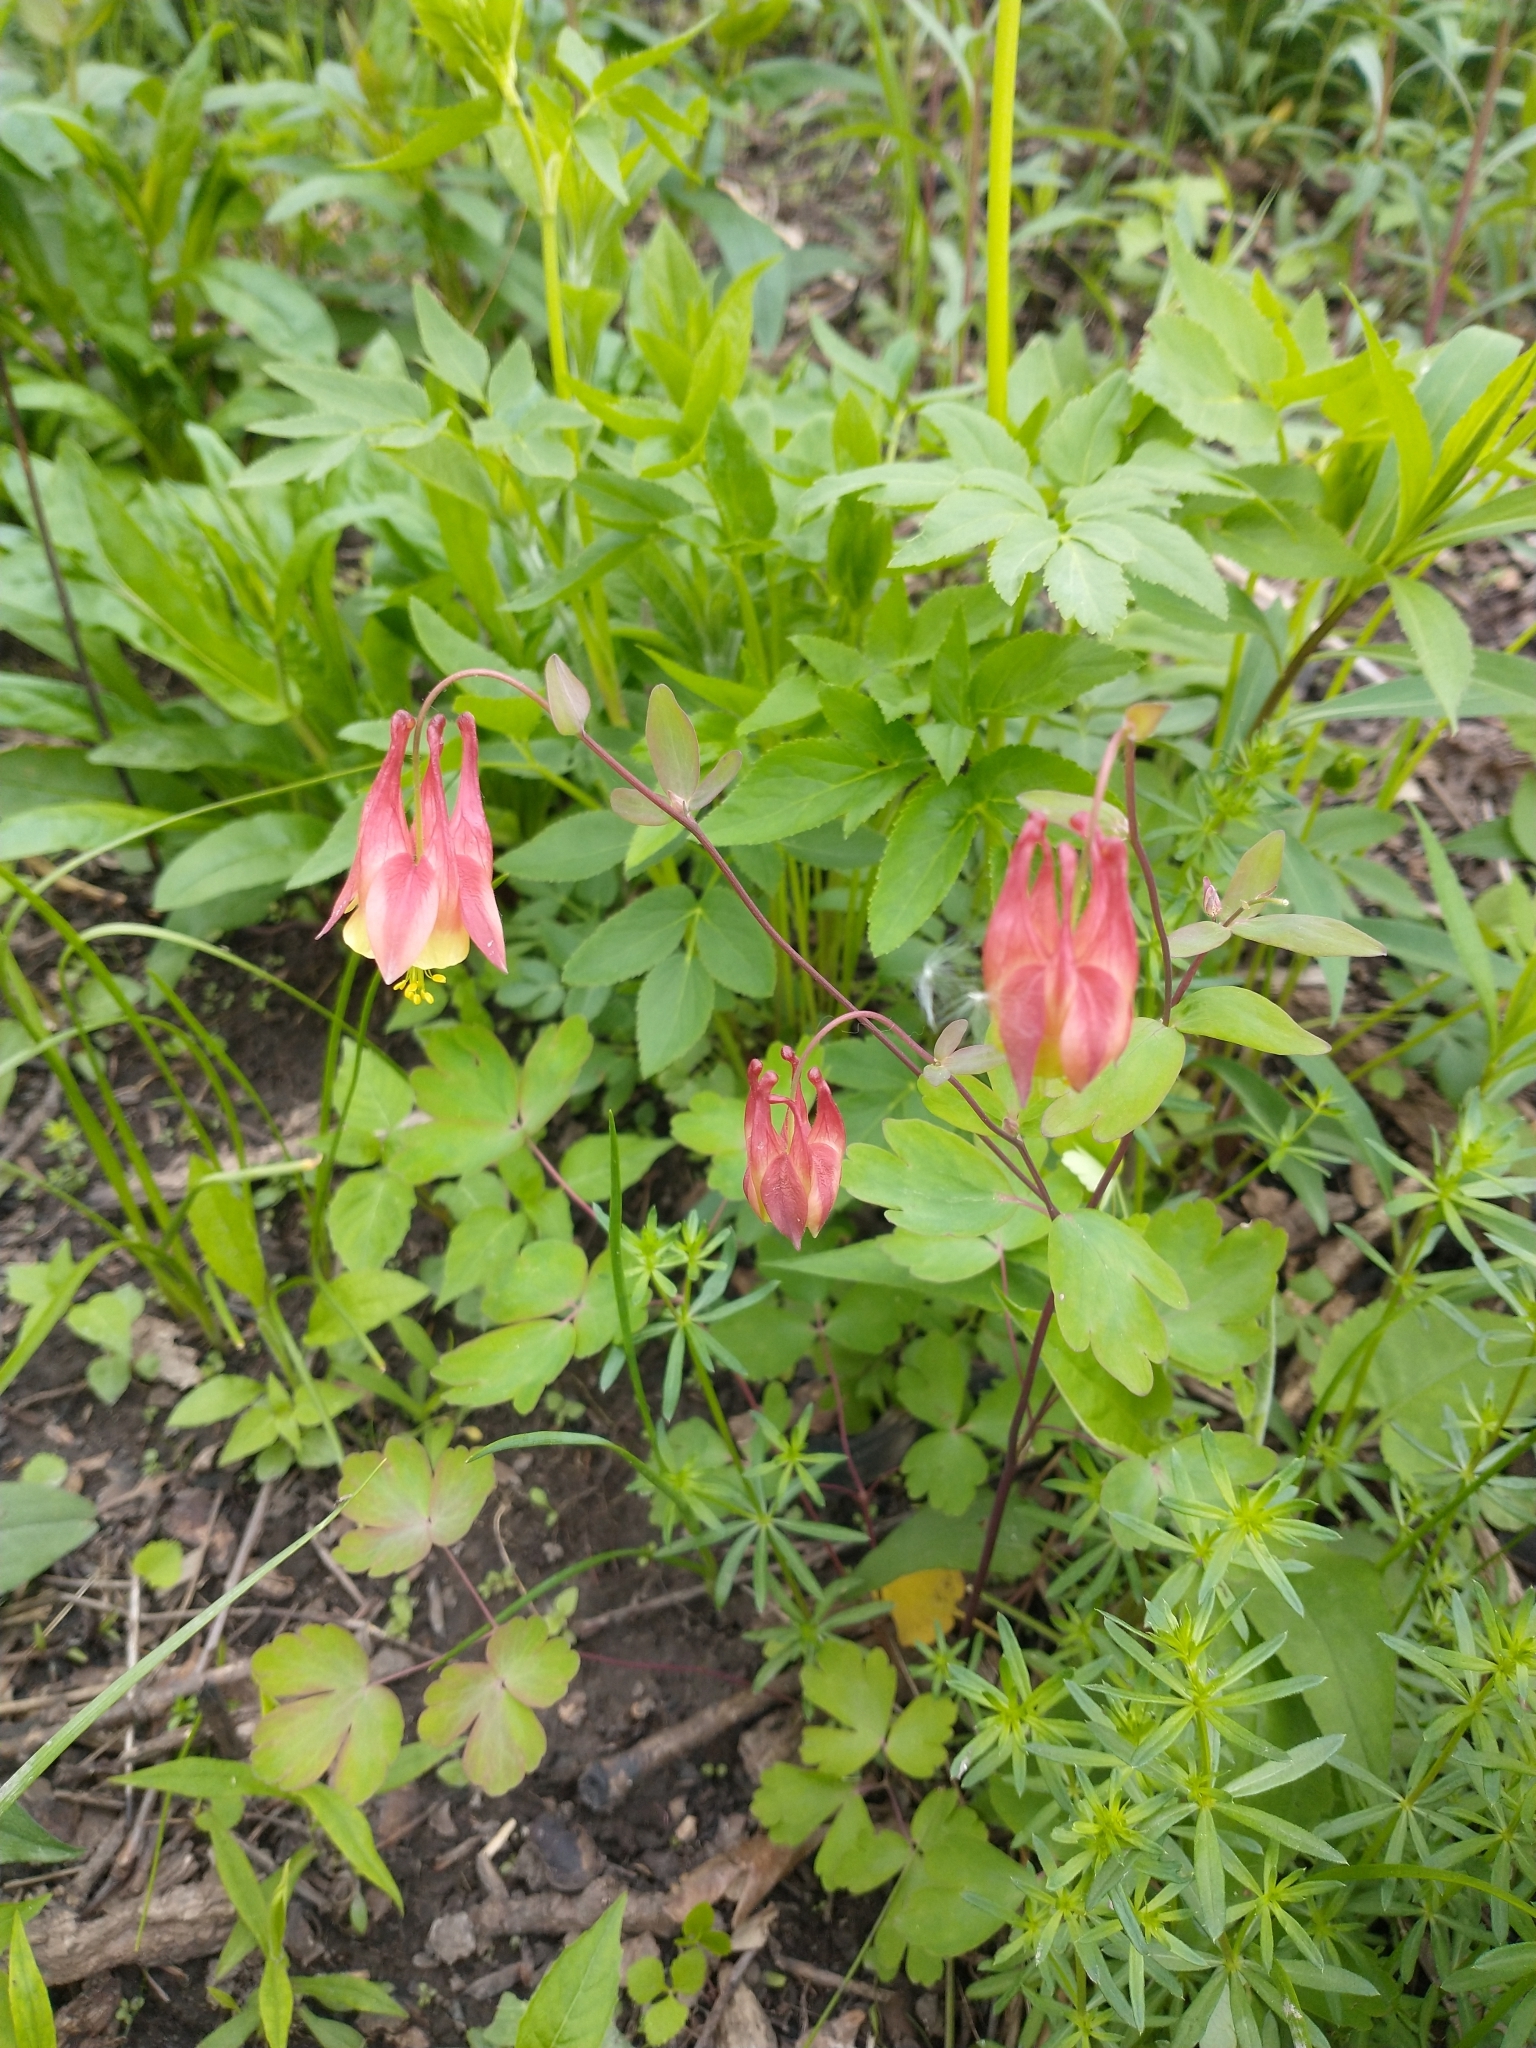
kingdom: Plantae
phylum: Tracheophyta
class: Magnoliopsida
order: Ranunculales
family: Ranunculaceae
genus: Aquilegia
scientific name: Aquilegia canadensis
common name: American columbine
